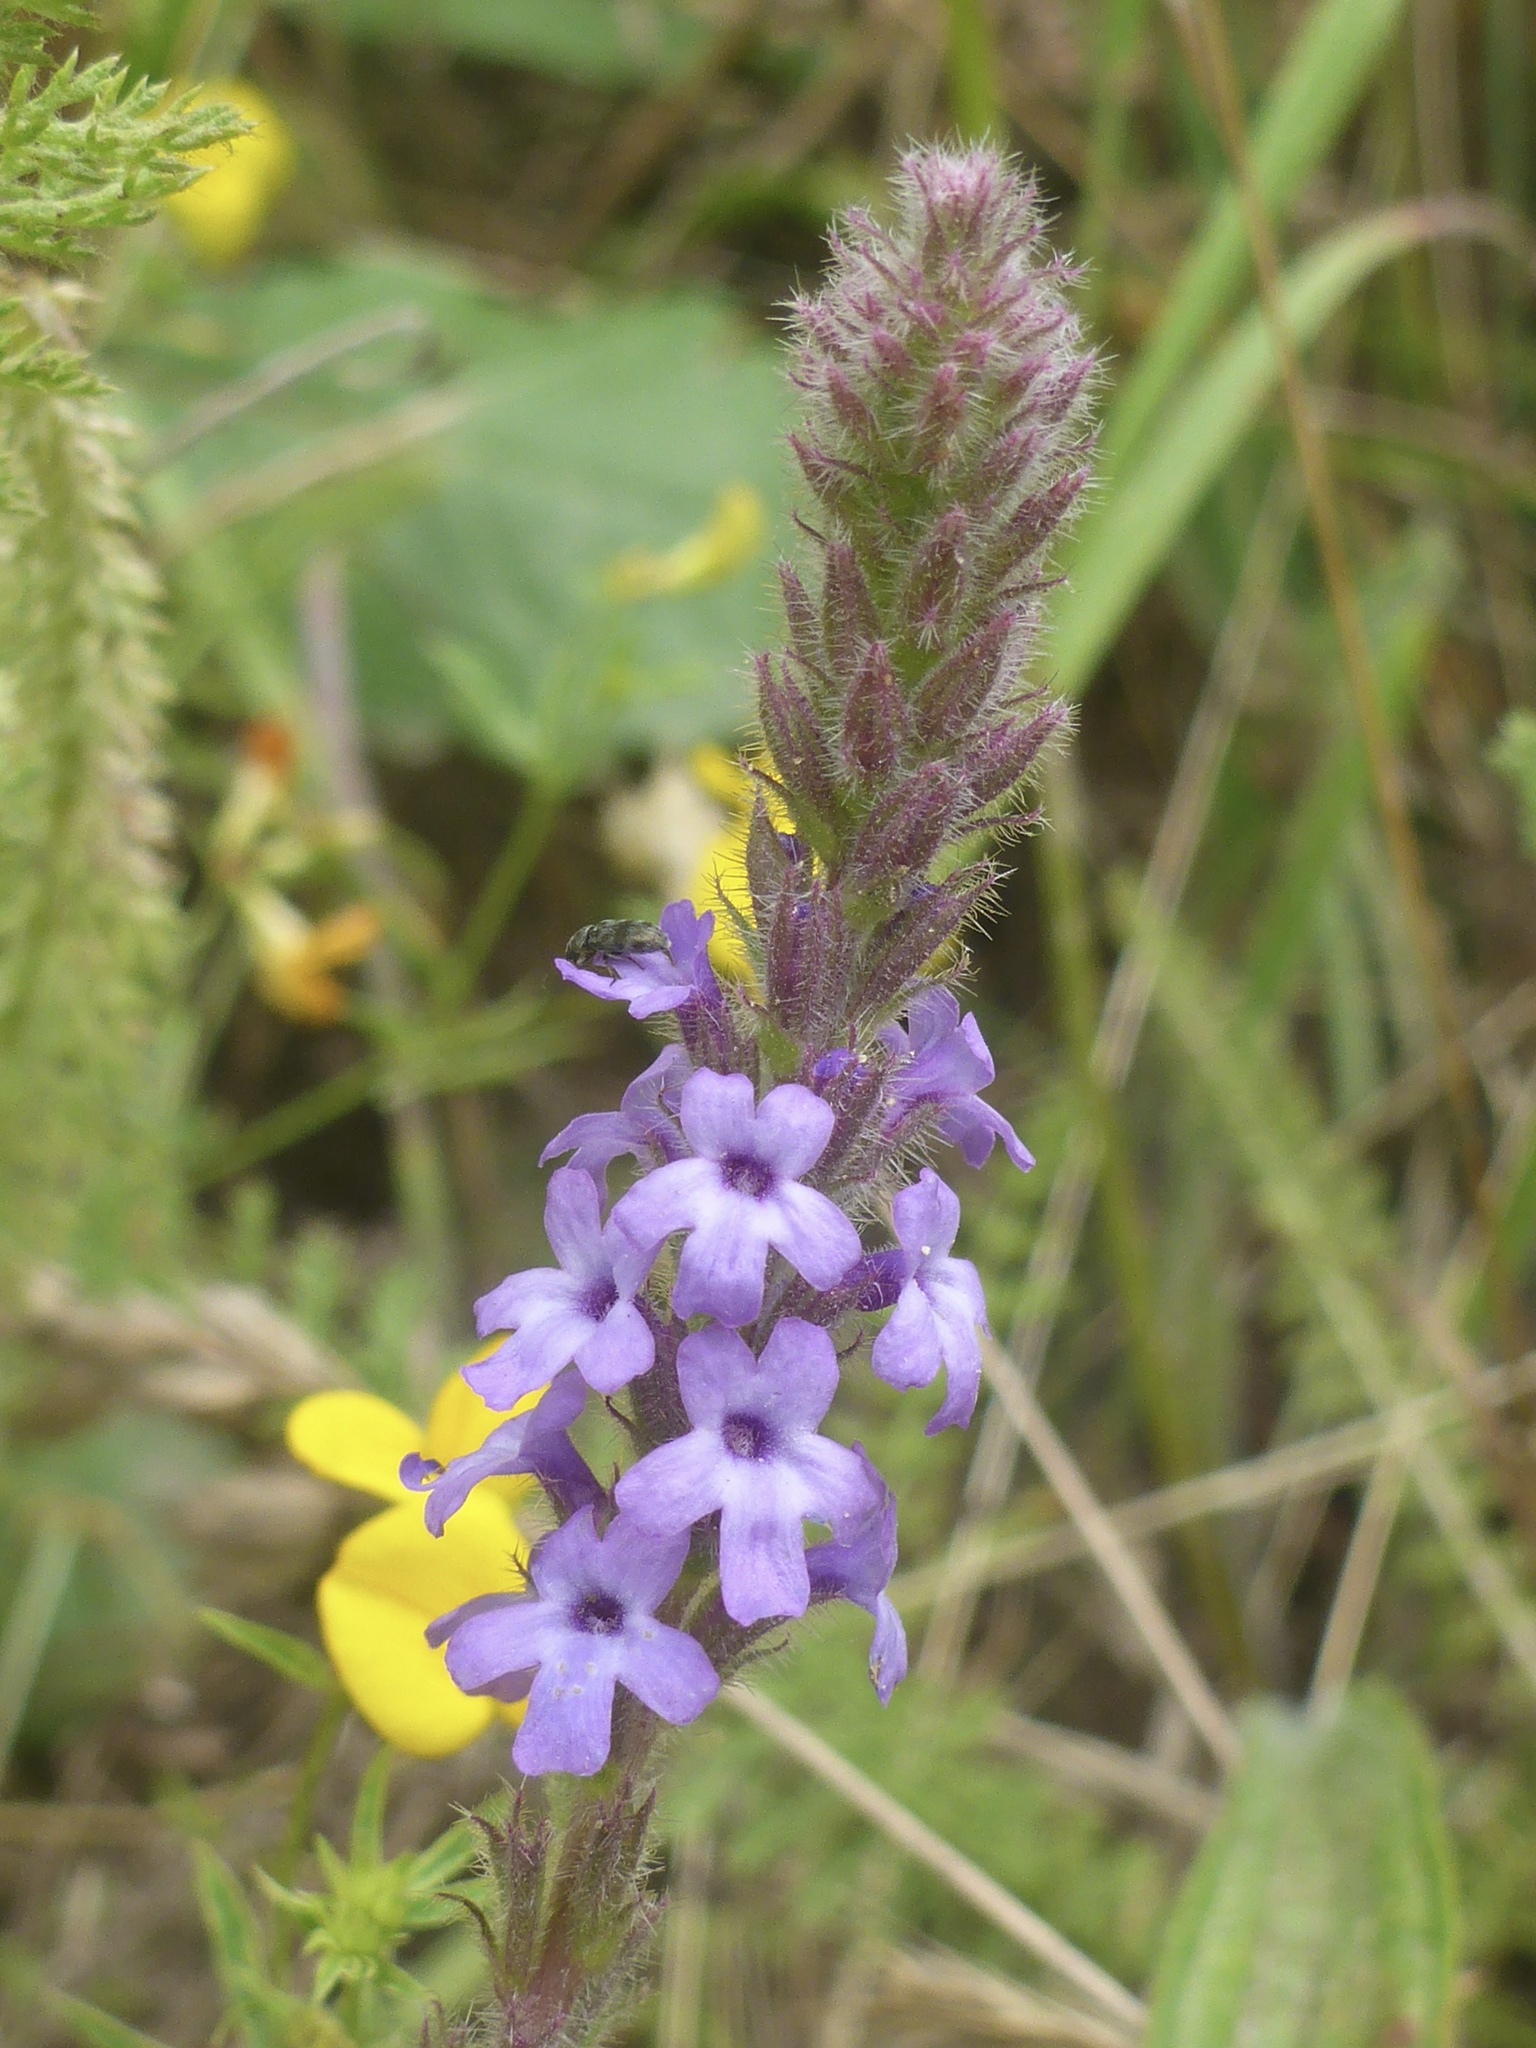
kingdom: Plantae
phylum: Tracheophyta
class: Magnoliopsida
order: Lamiales
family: Verbenaceae
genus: Verbena
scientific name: Verbena lasiostachys
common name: Vervain
